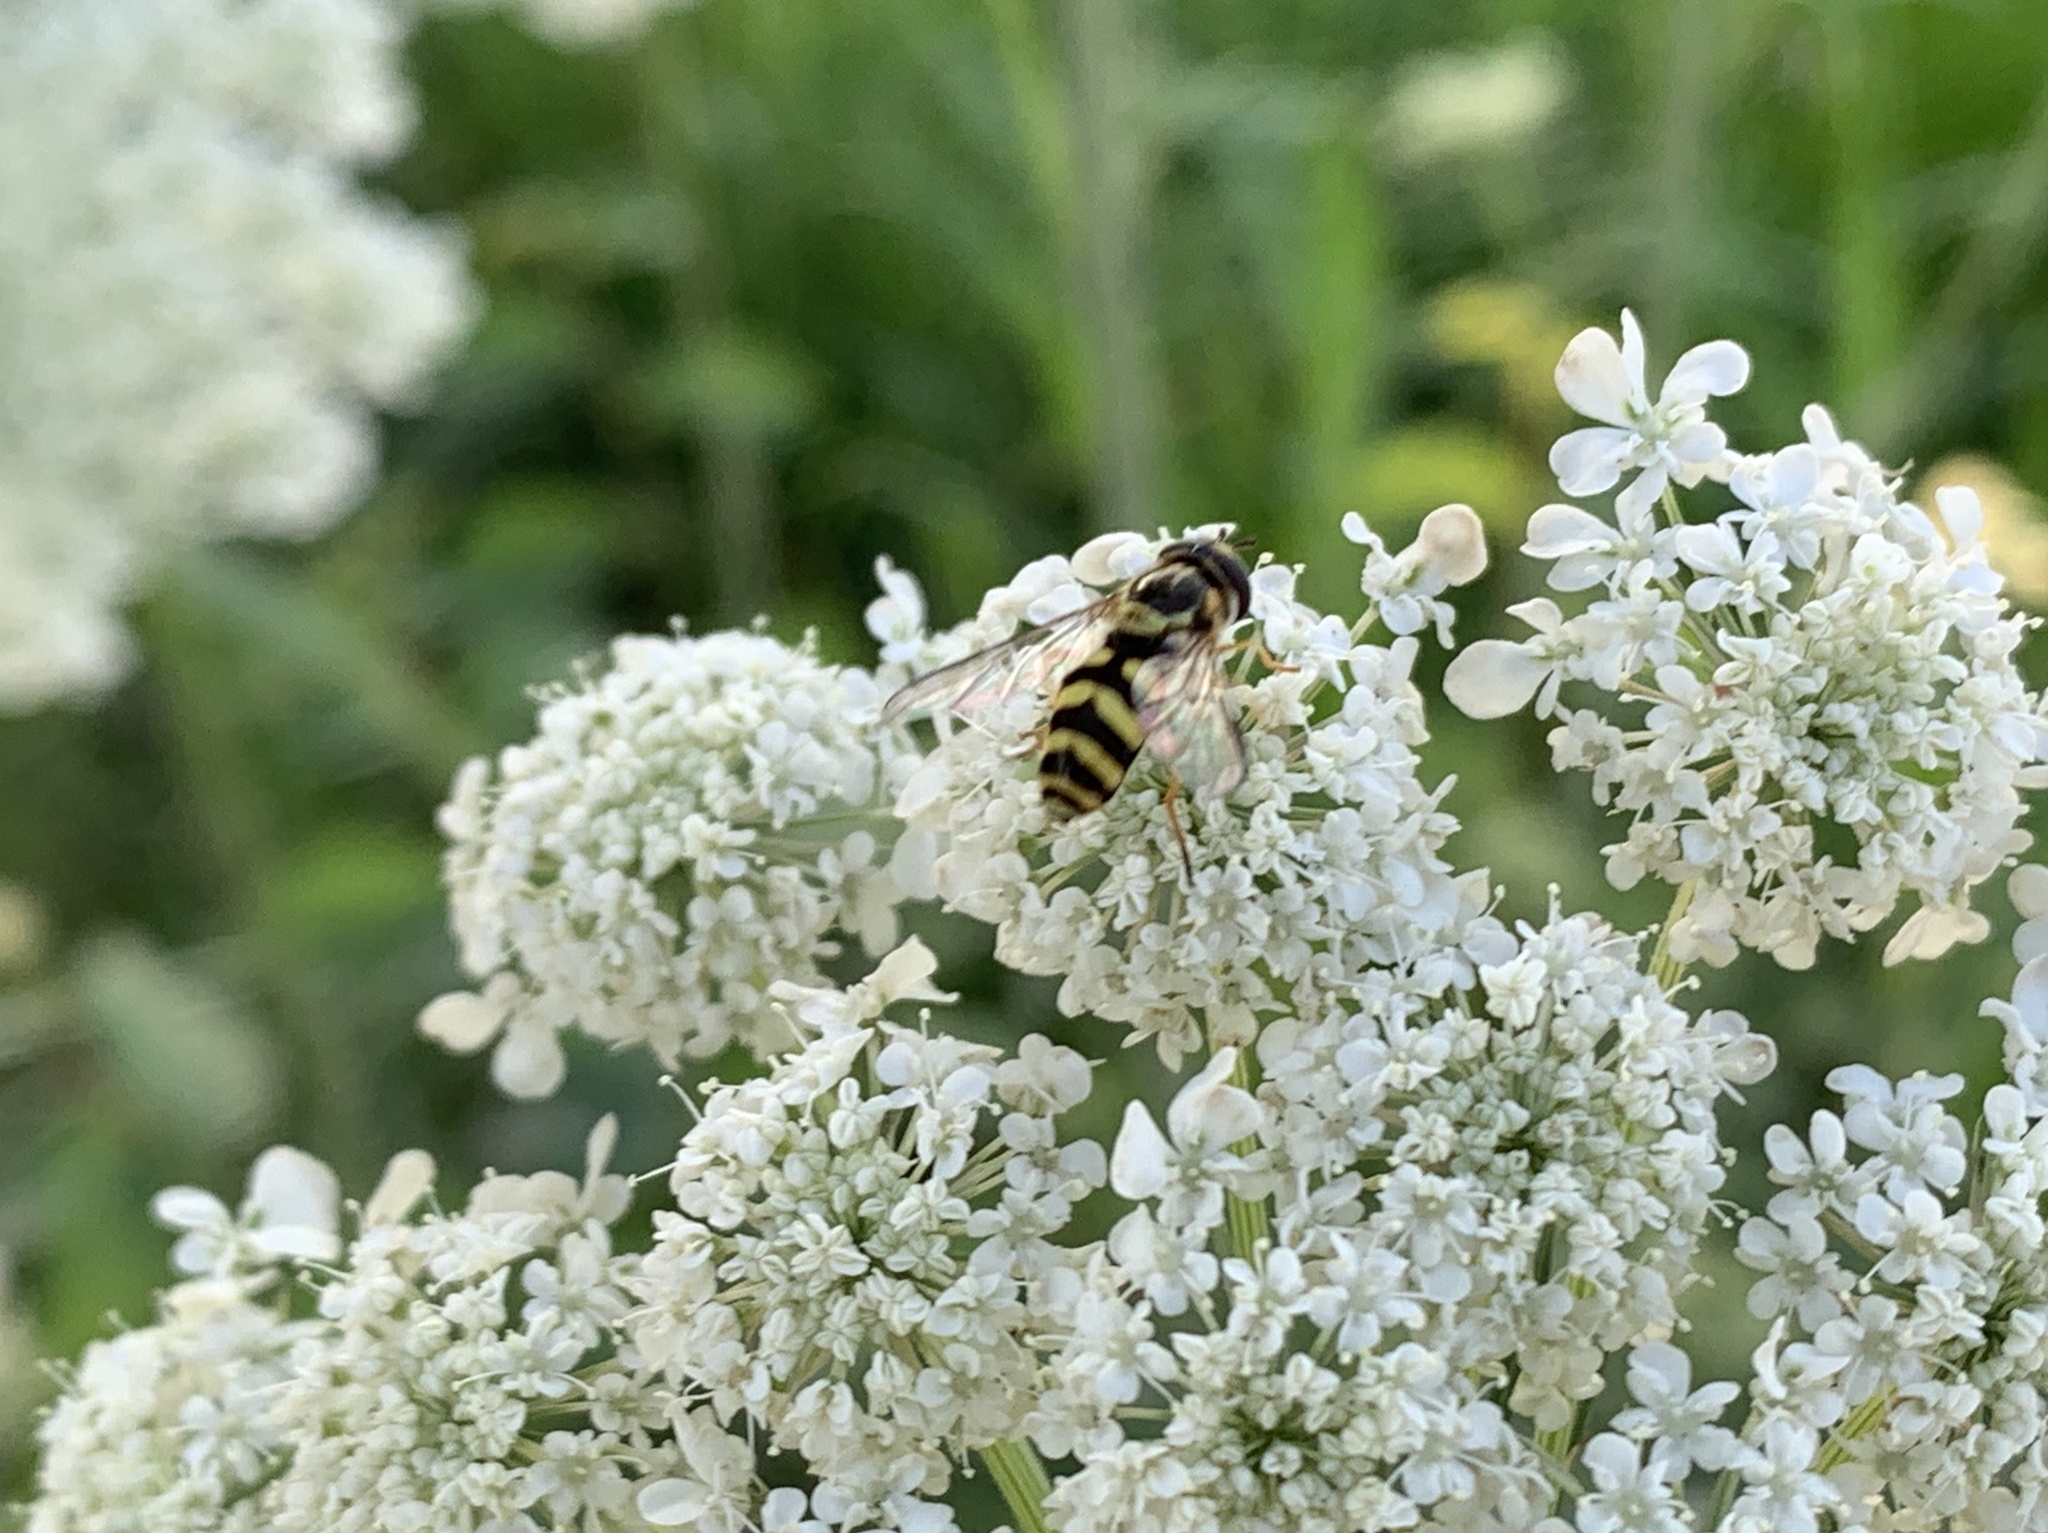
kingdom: Animalia
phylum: Arthropoda
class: Insecta
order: Diptera
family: Syrphidae
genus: Dasysyrphus
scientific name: Dasysyrphus albostriatus
